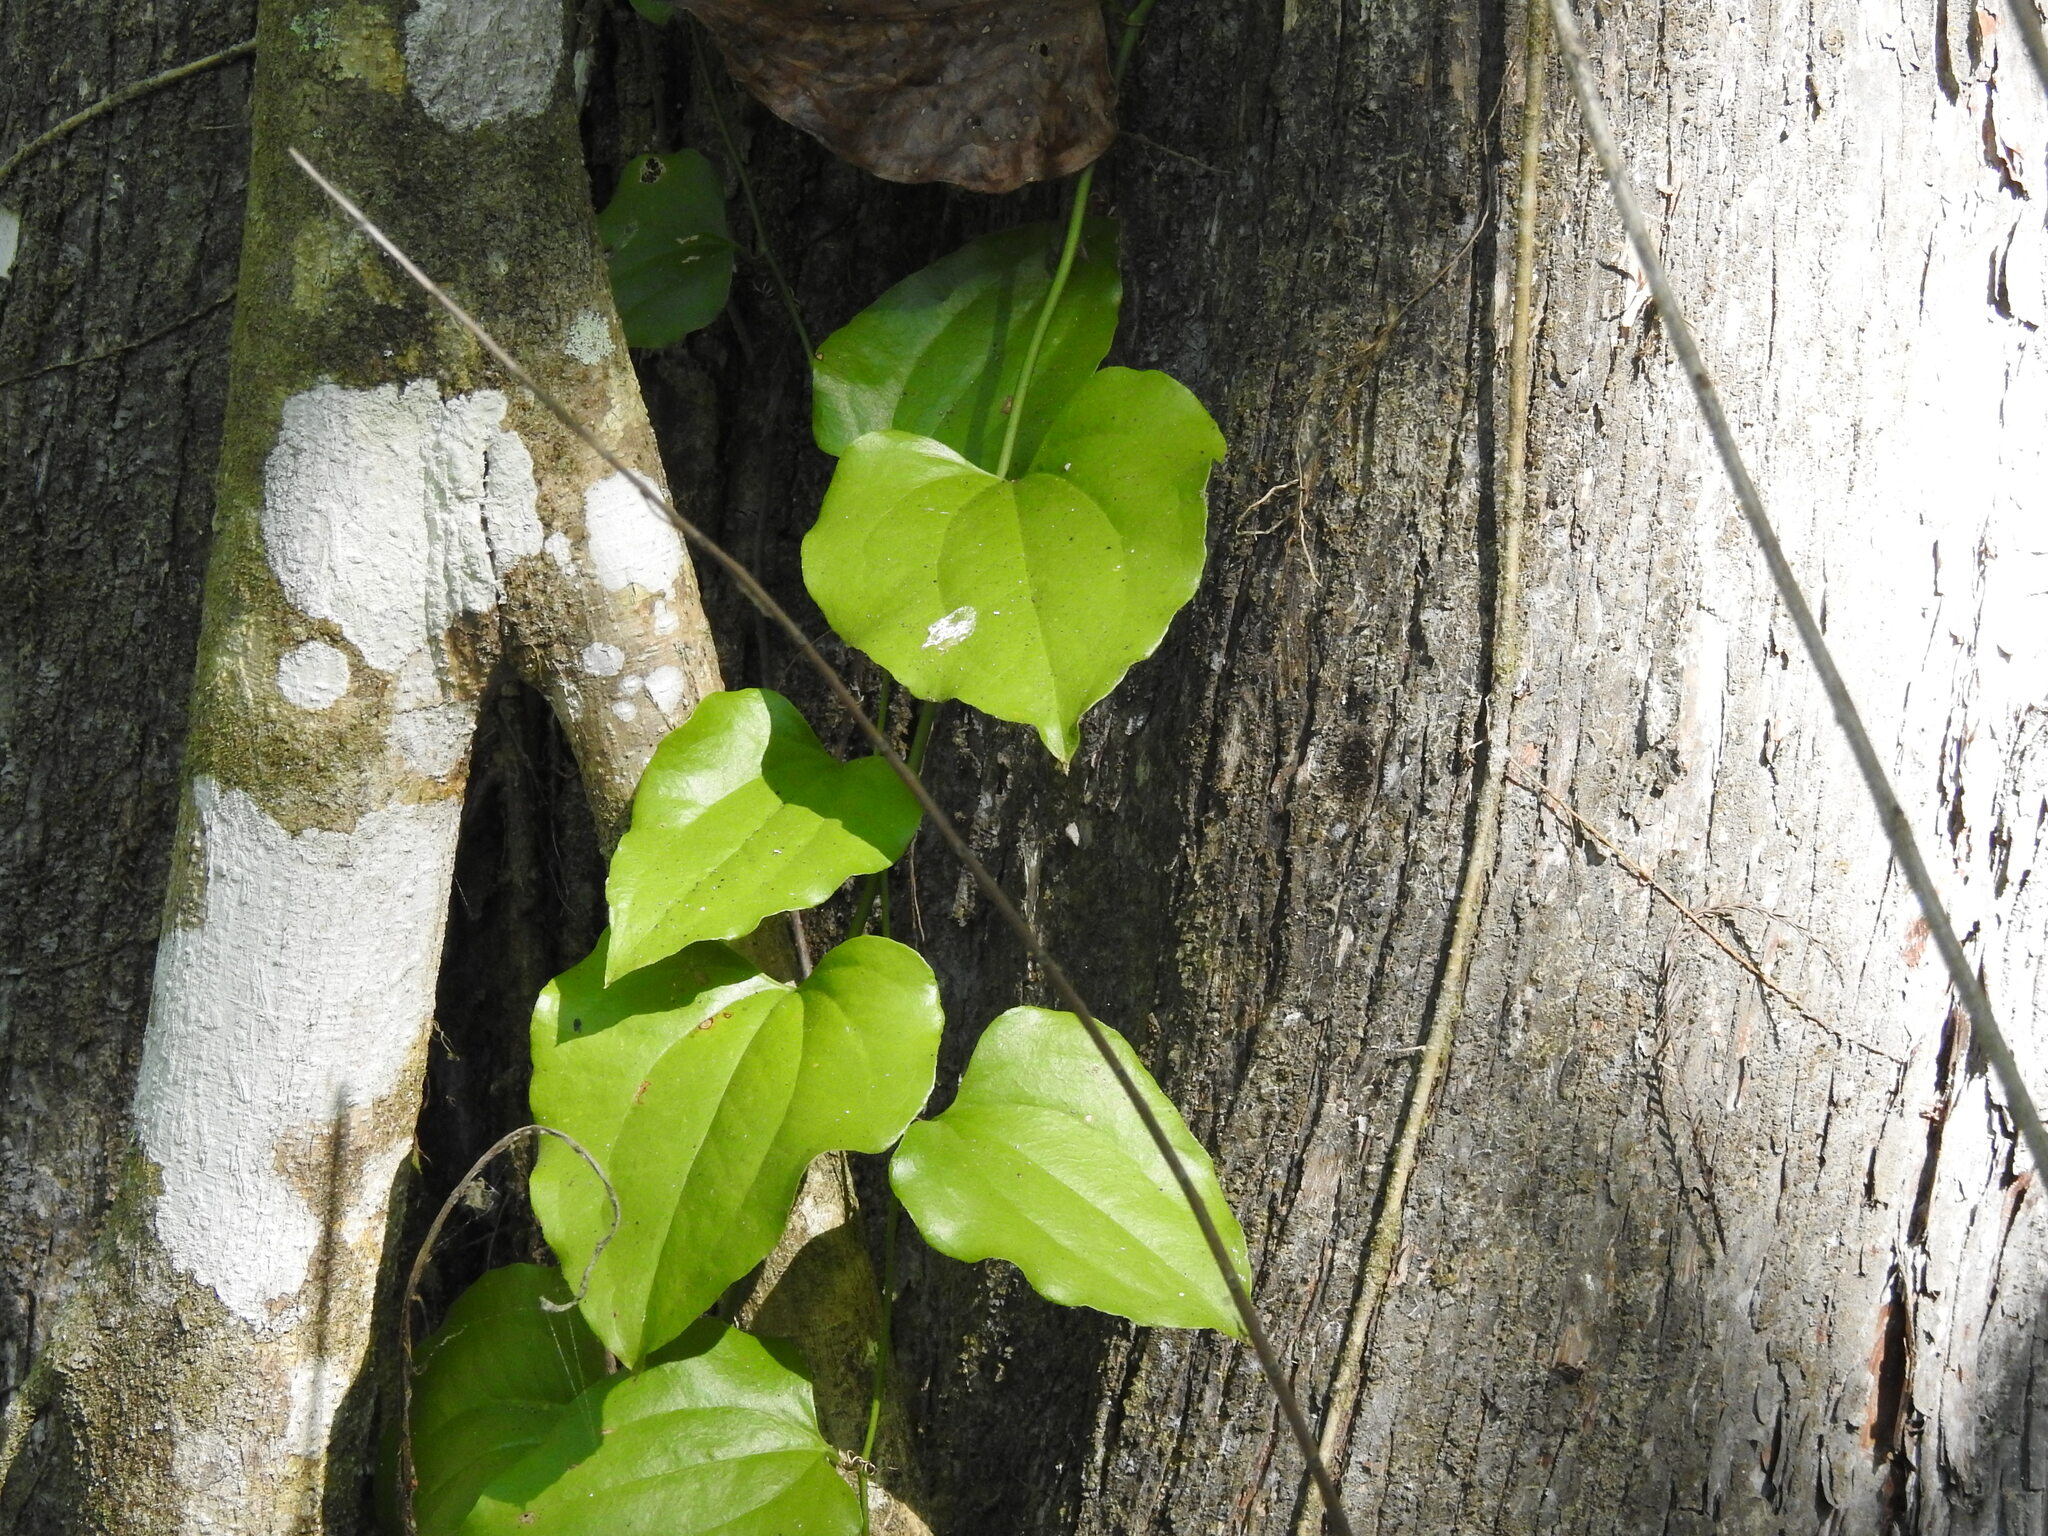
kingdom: Plantae
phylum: Tracheophyta
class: Liliopsida
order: Liliales
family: Smilacaceae
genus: Smilax
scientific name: Smilax tamnoides
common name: Hellfetter
